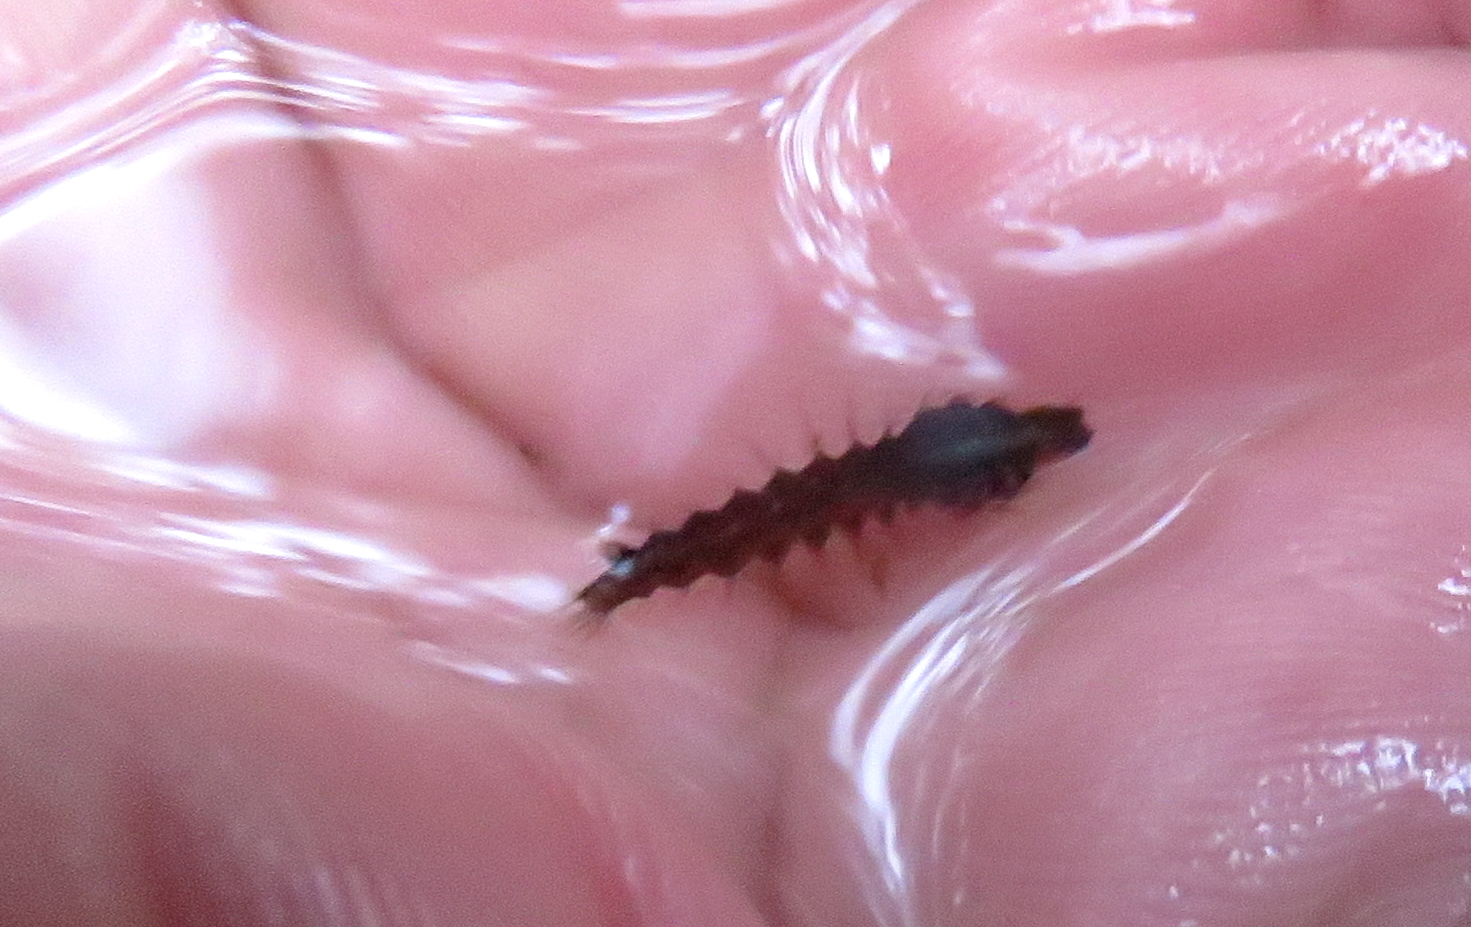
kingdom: Animalia
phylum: Arthropoda
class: Insecta
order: Diptera
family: Culicidae
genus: Toxorhynchites
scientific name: Toxorhynchites speciosus
